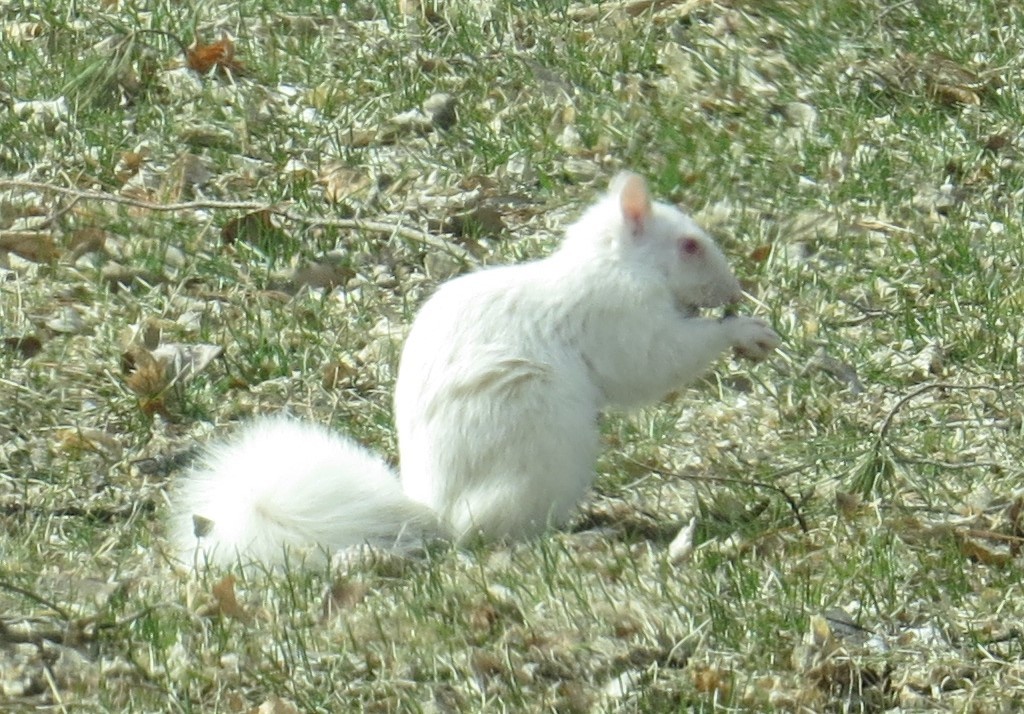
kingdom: Animalia
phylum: Chordata
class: Mammalia
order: Rodentia
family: Sciuridae
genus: Sciurus
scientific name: Sciurus carolinensis
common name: Eastern gray squirrel
